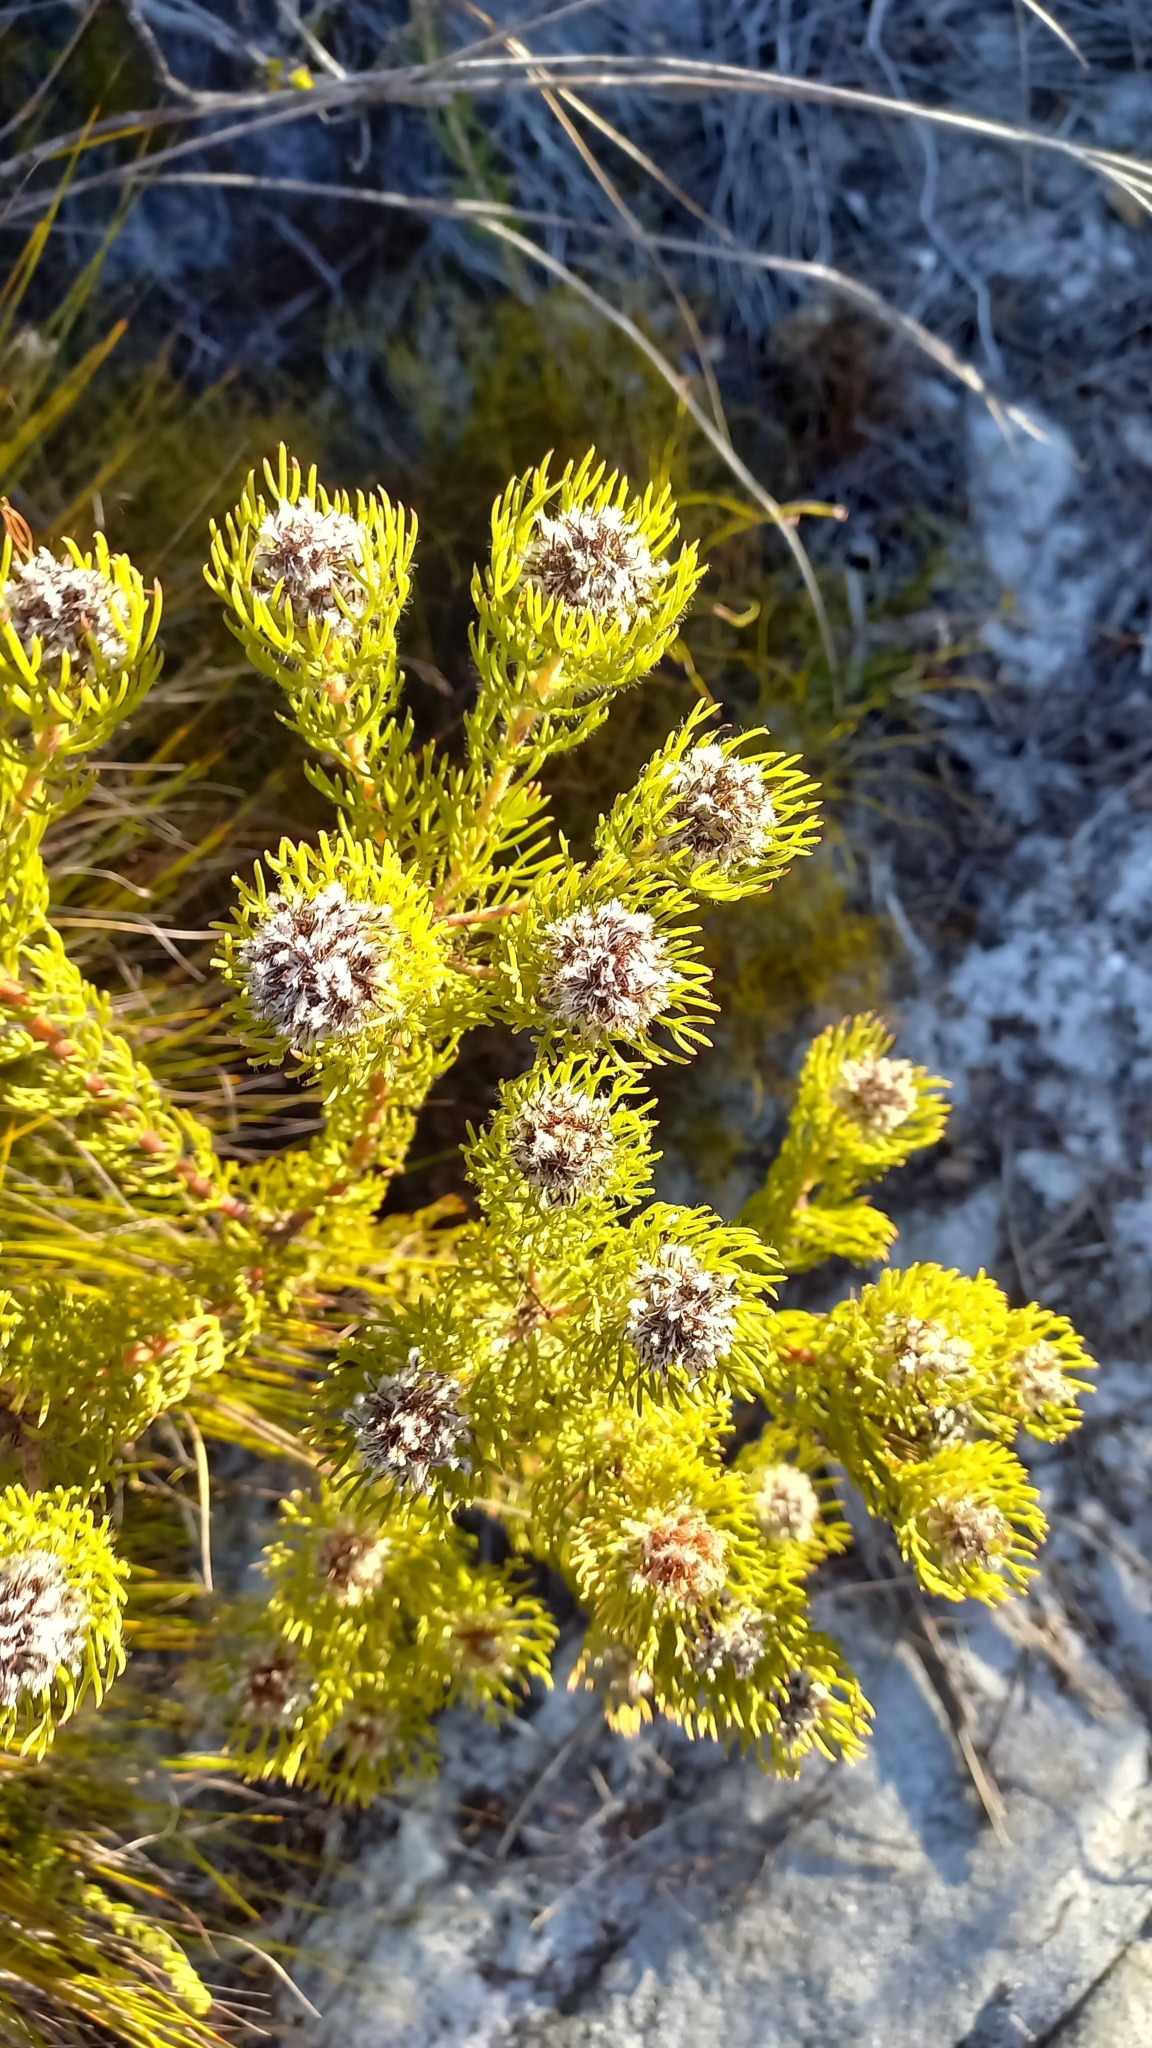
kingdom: Plantae
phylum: Tracheophyta
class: Magnoliopsida
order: Proteales
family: Proteaceae
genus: Serruria
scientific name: Serruria villosa
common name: Golden spiderhead
